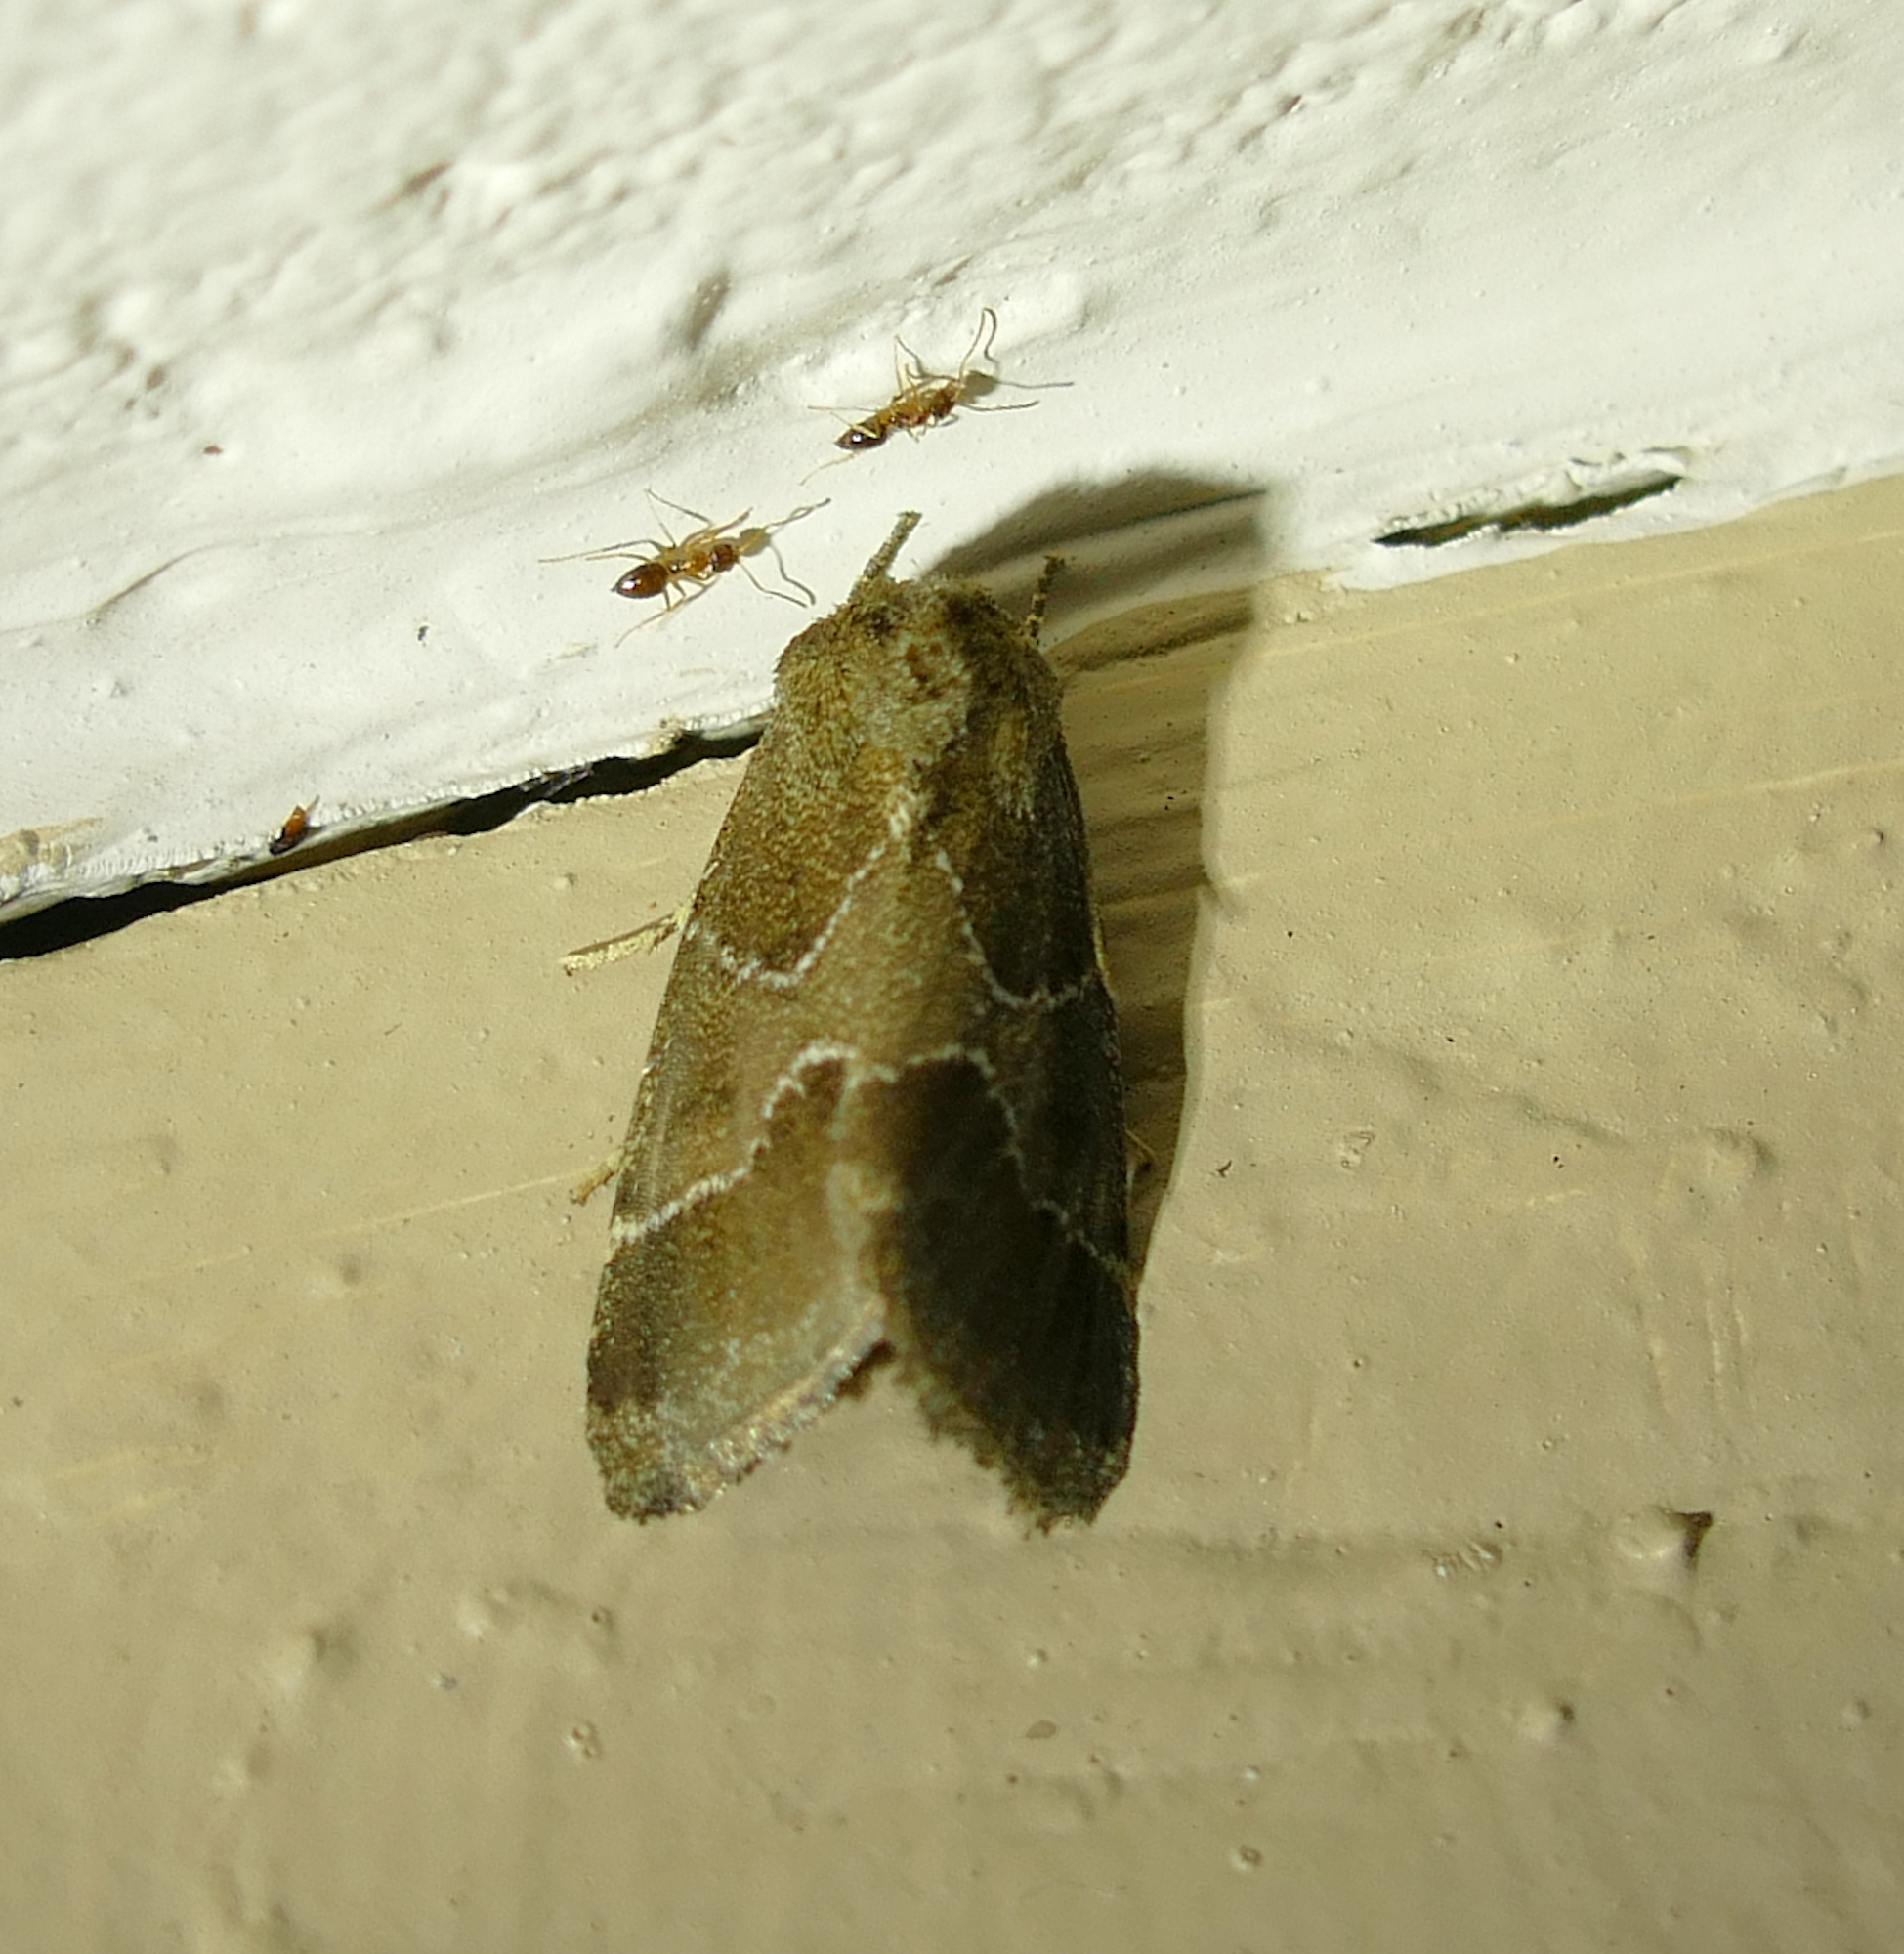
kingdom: Animalia
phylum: Arthropoda
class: Insecta
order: Lepidoptera
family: Noctuidae
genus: Schinia
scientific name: Schinia thoreaui
